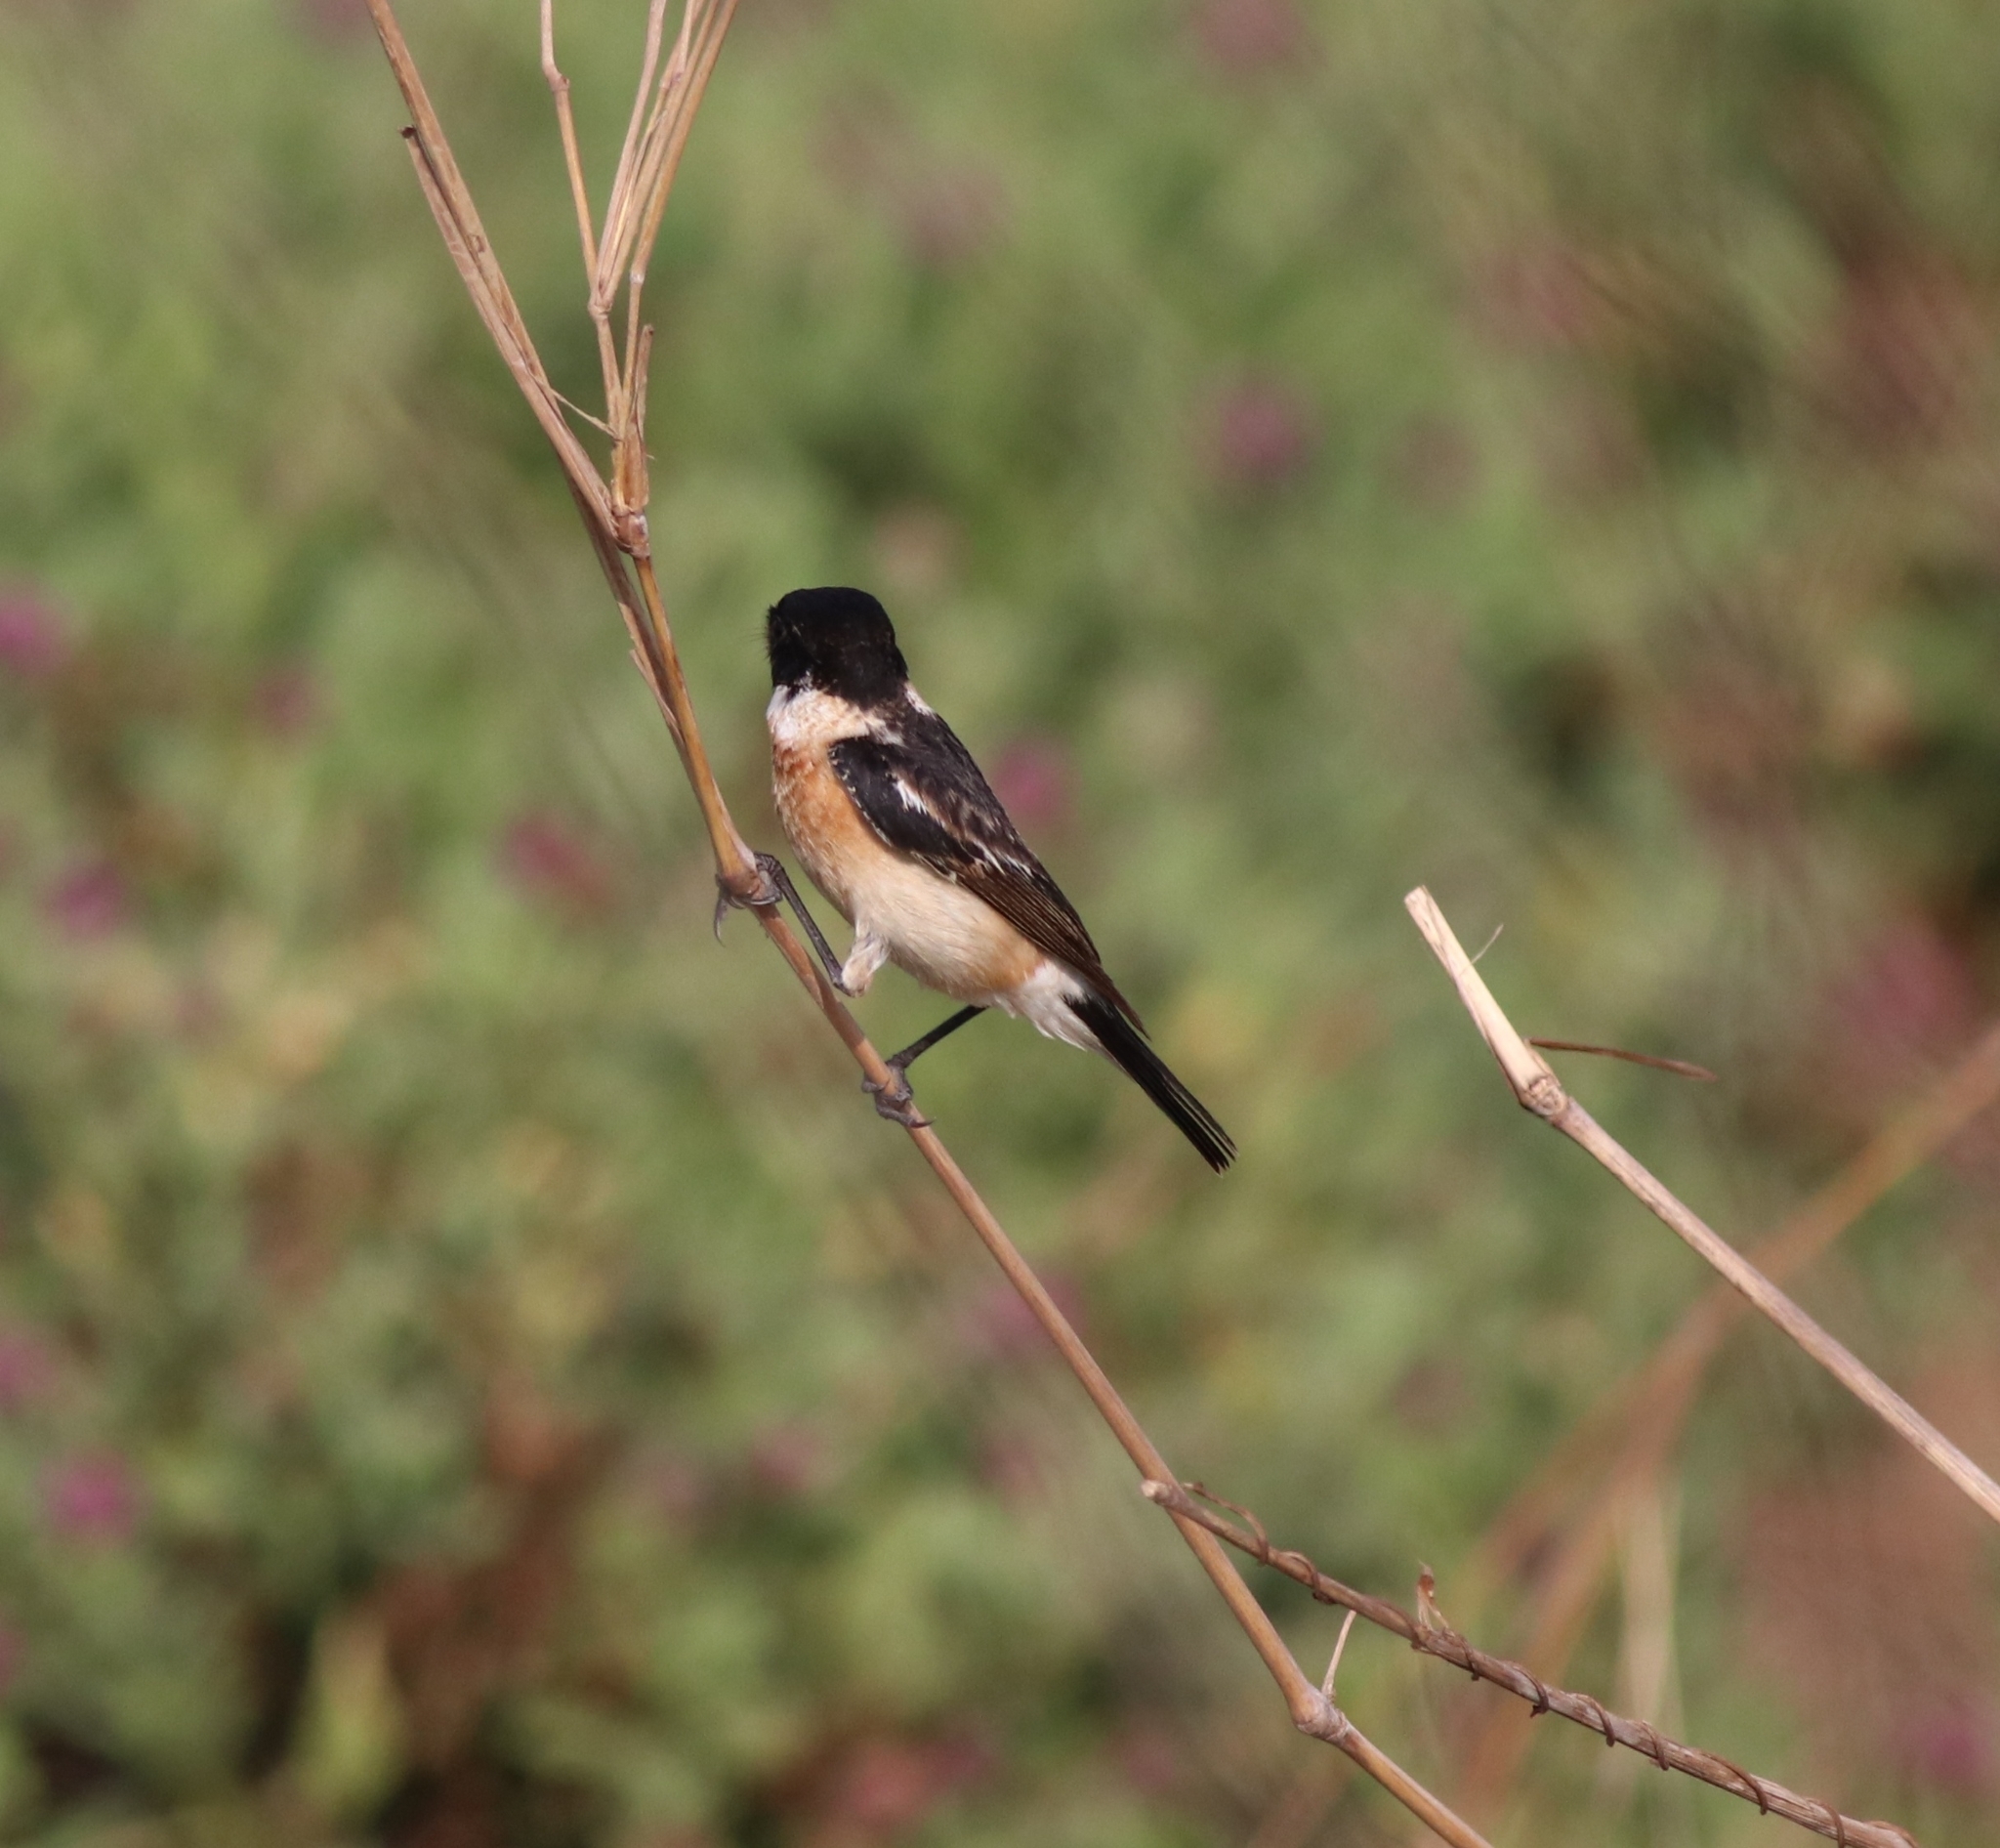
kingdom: Animalia
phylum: Chordata
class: Aves
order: Passeriformes
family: Muscicapidae
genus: Saxicola
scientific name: Saxicola maurus
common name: Siberian stonechat
